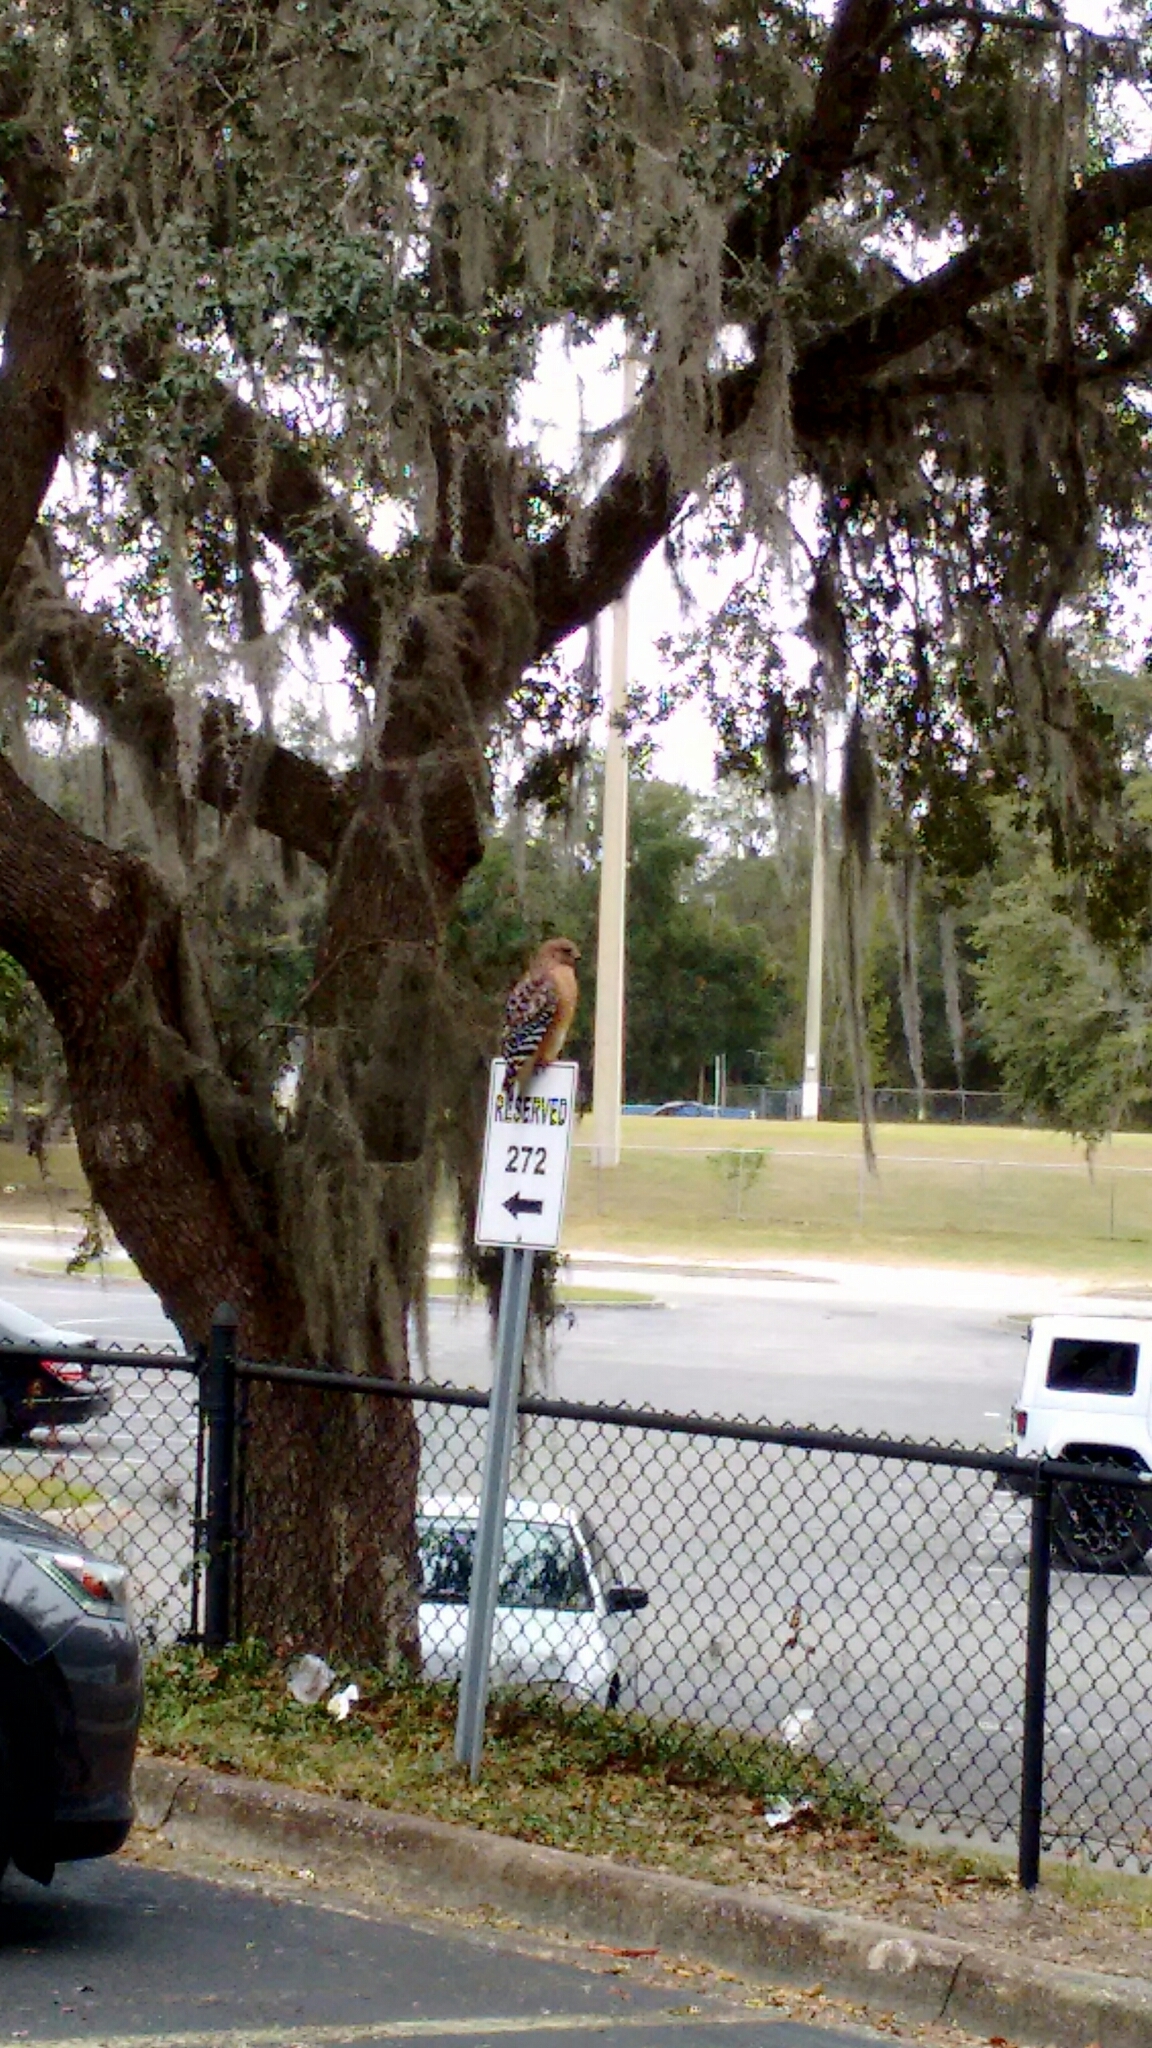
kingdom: Animalia
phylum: Chordata
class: Aves
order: Accipitriformes
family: Accipitridae
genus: Buteo
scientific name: Buteo lineatus
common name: Red-shouldered hawk
